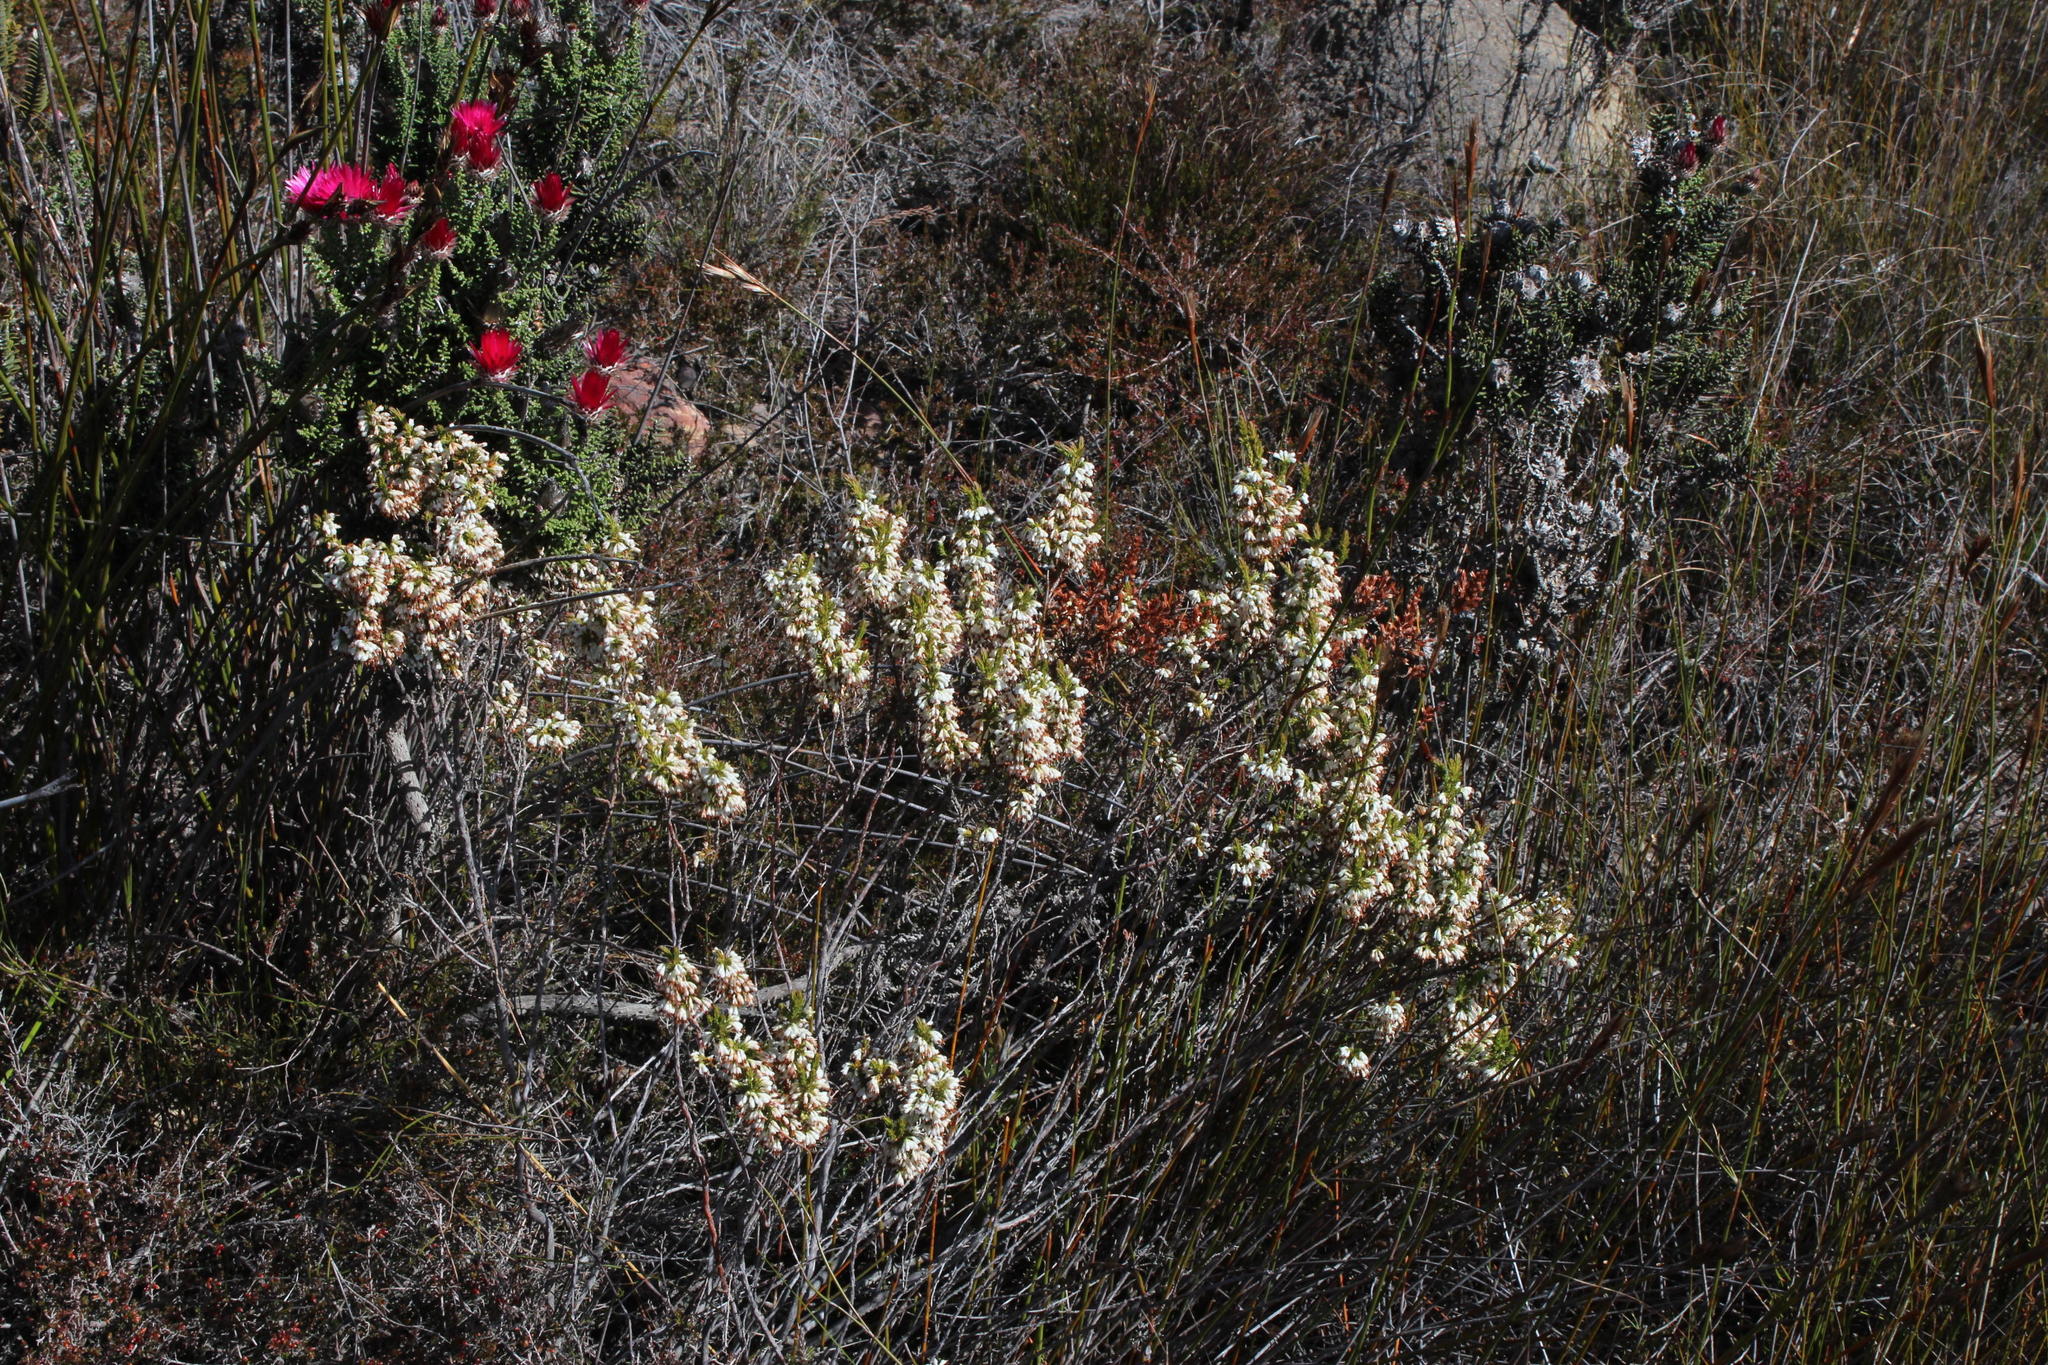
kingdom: Plantae
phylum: Tracheophyta
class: Magnoliopsida
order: Ericales
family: Ericaceae
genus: Erica
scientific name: Erica imbricata
